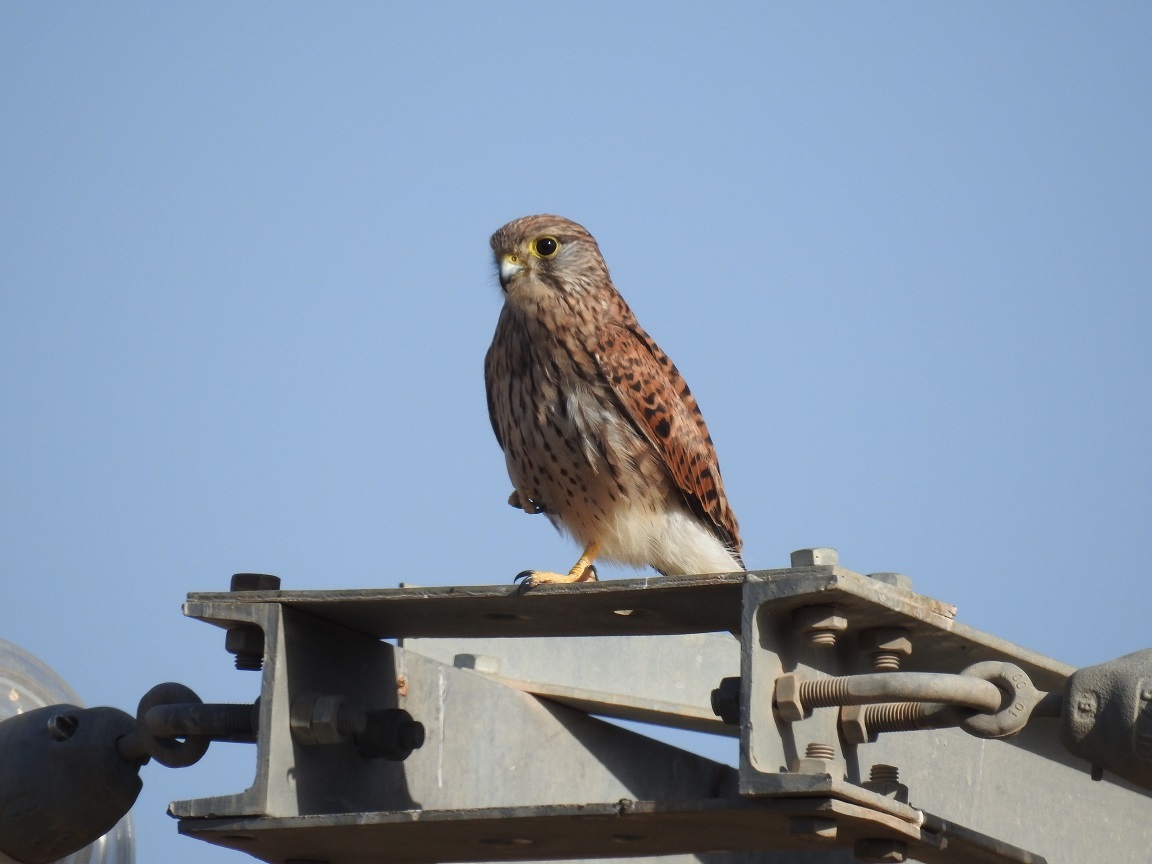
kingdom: Animalia
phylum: Chordata
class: Aves
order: Falconiformes
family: Falconidae
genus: Falco
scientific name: Falco tinnunculus
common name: Common kestrel
